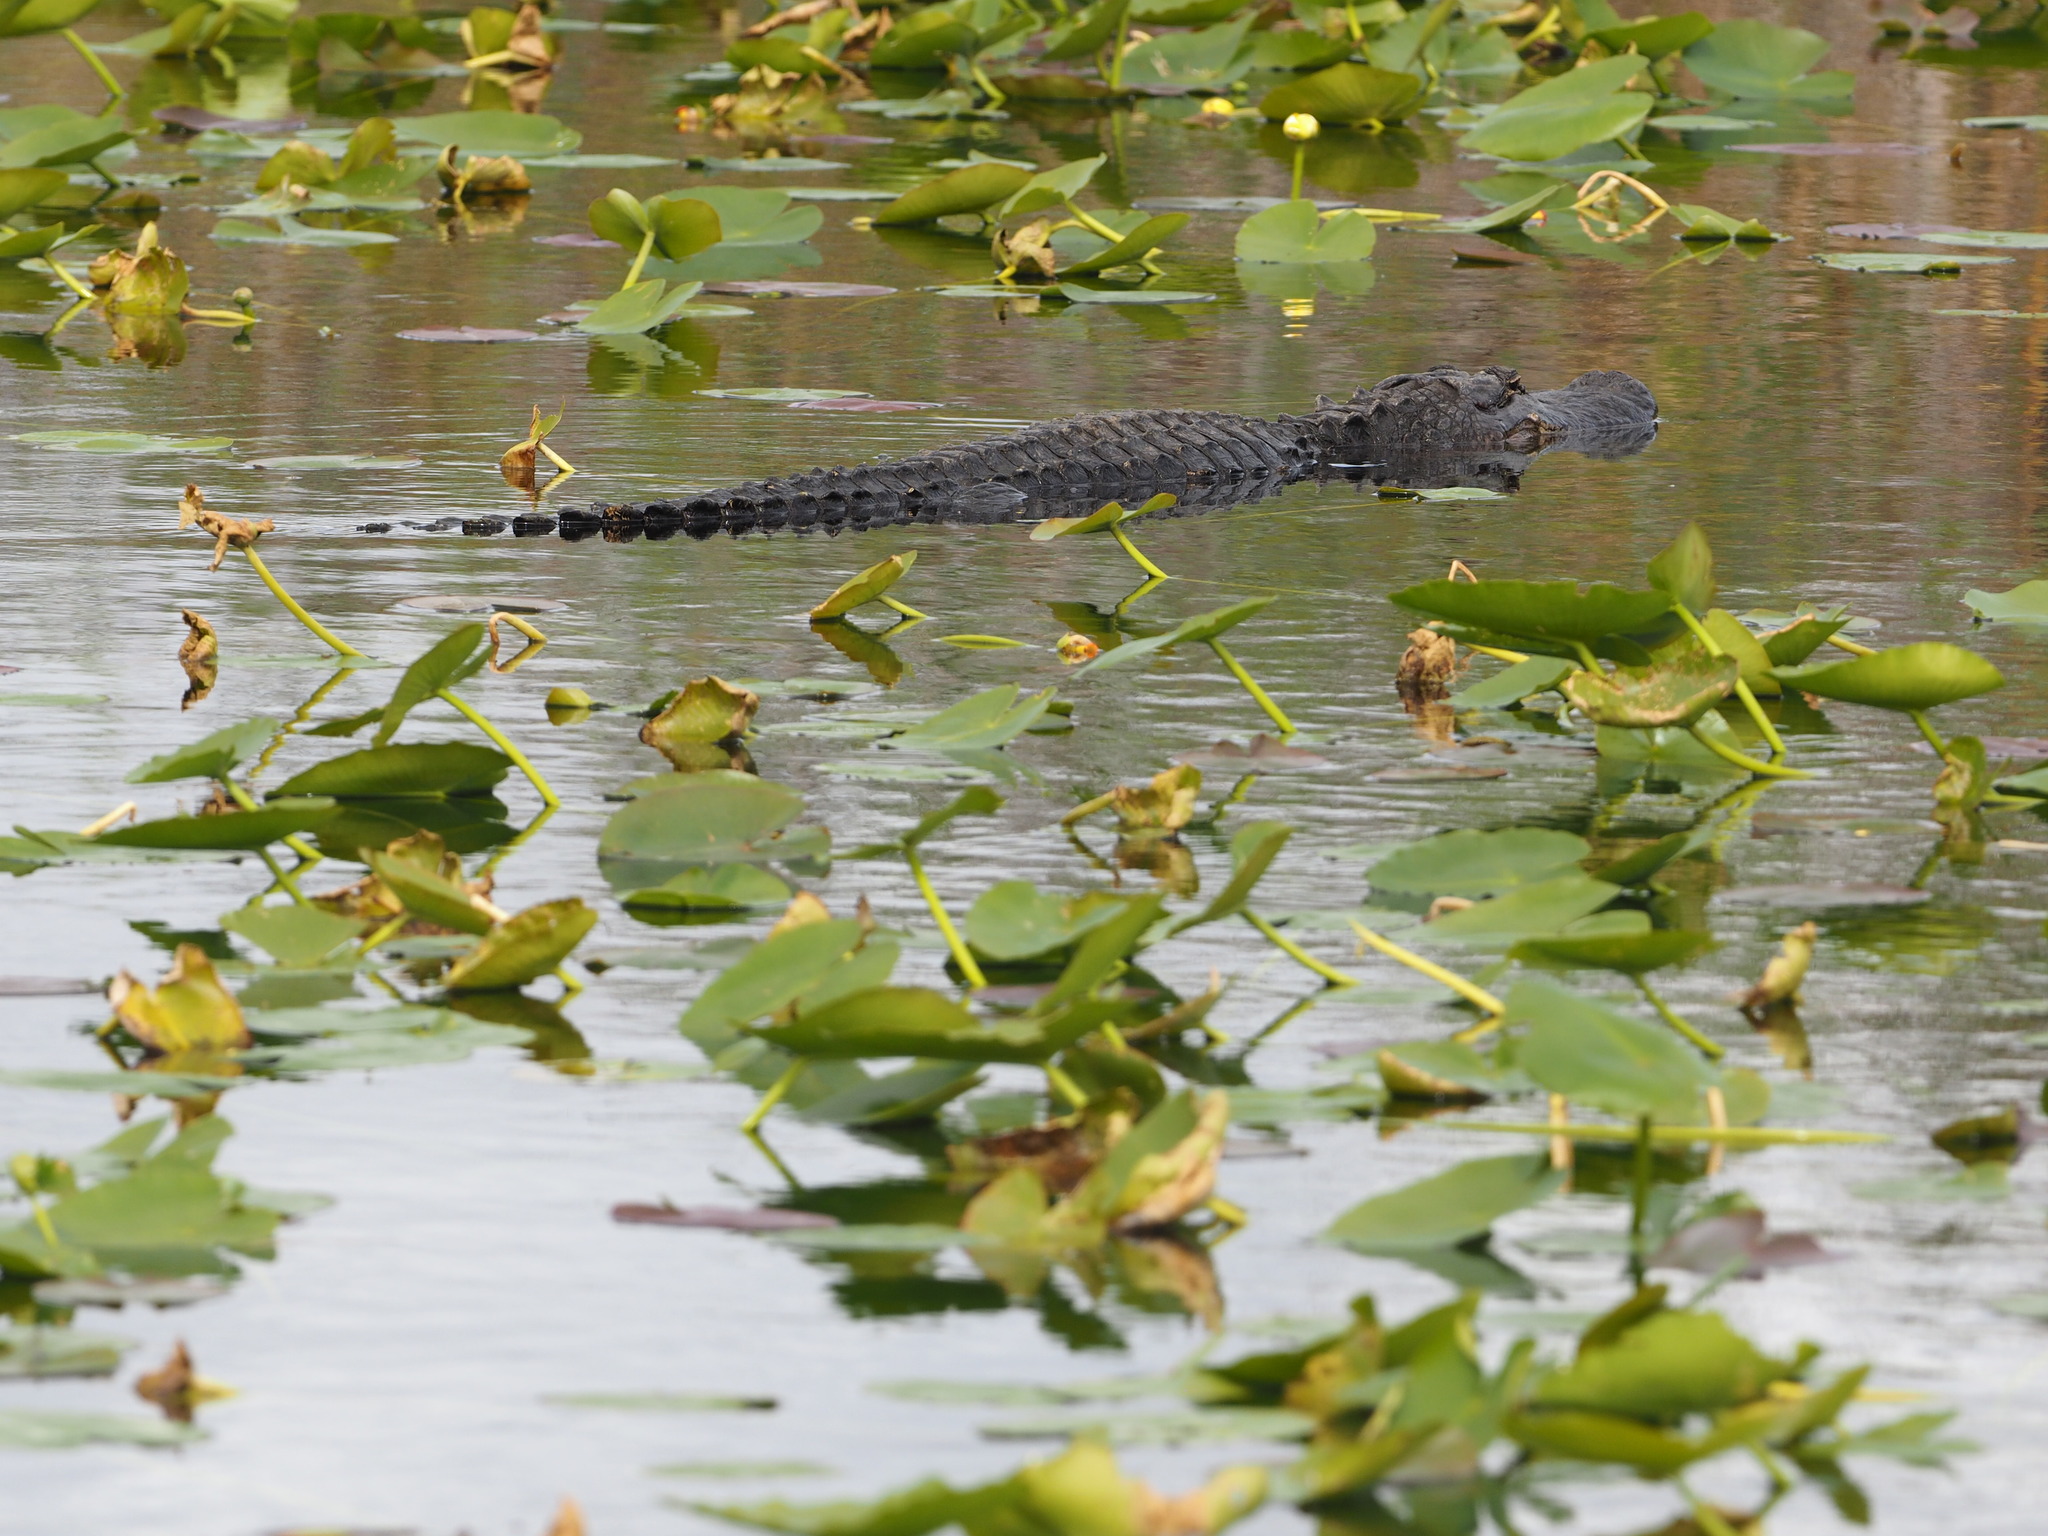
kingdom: Animalia
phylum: Chordata
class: Crocodylia
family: Alligatoridae
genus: Alligator
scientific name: Alligator mississippiensis
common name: American alligator
